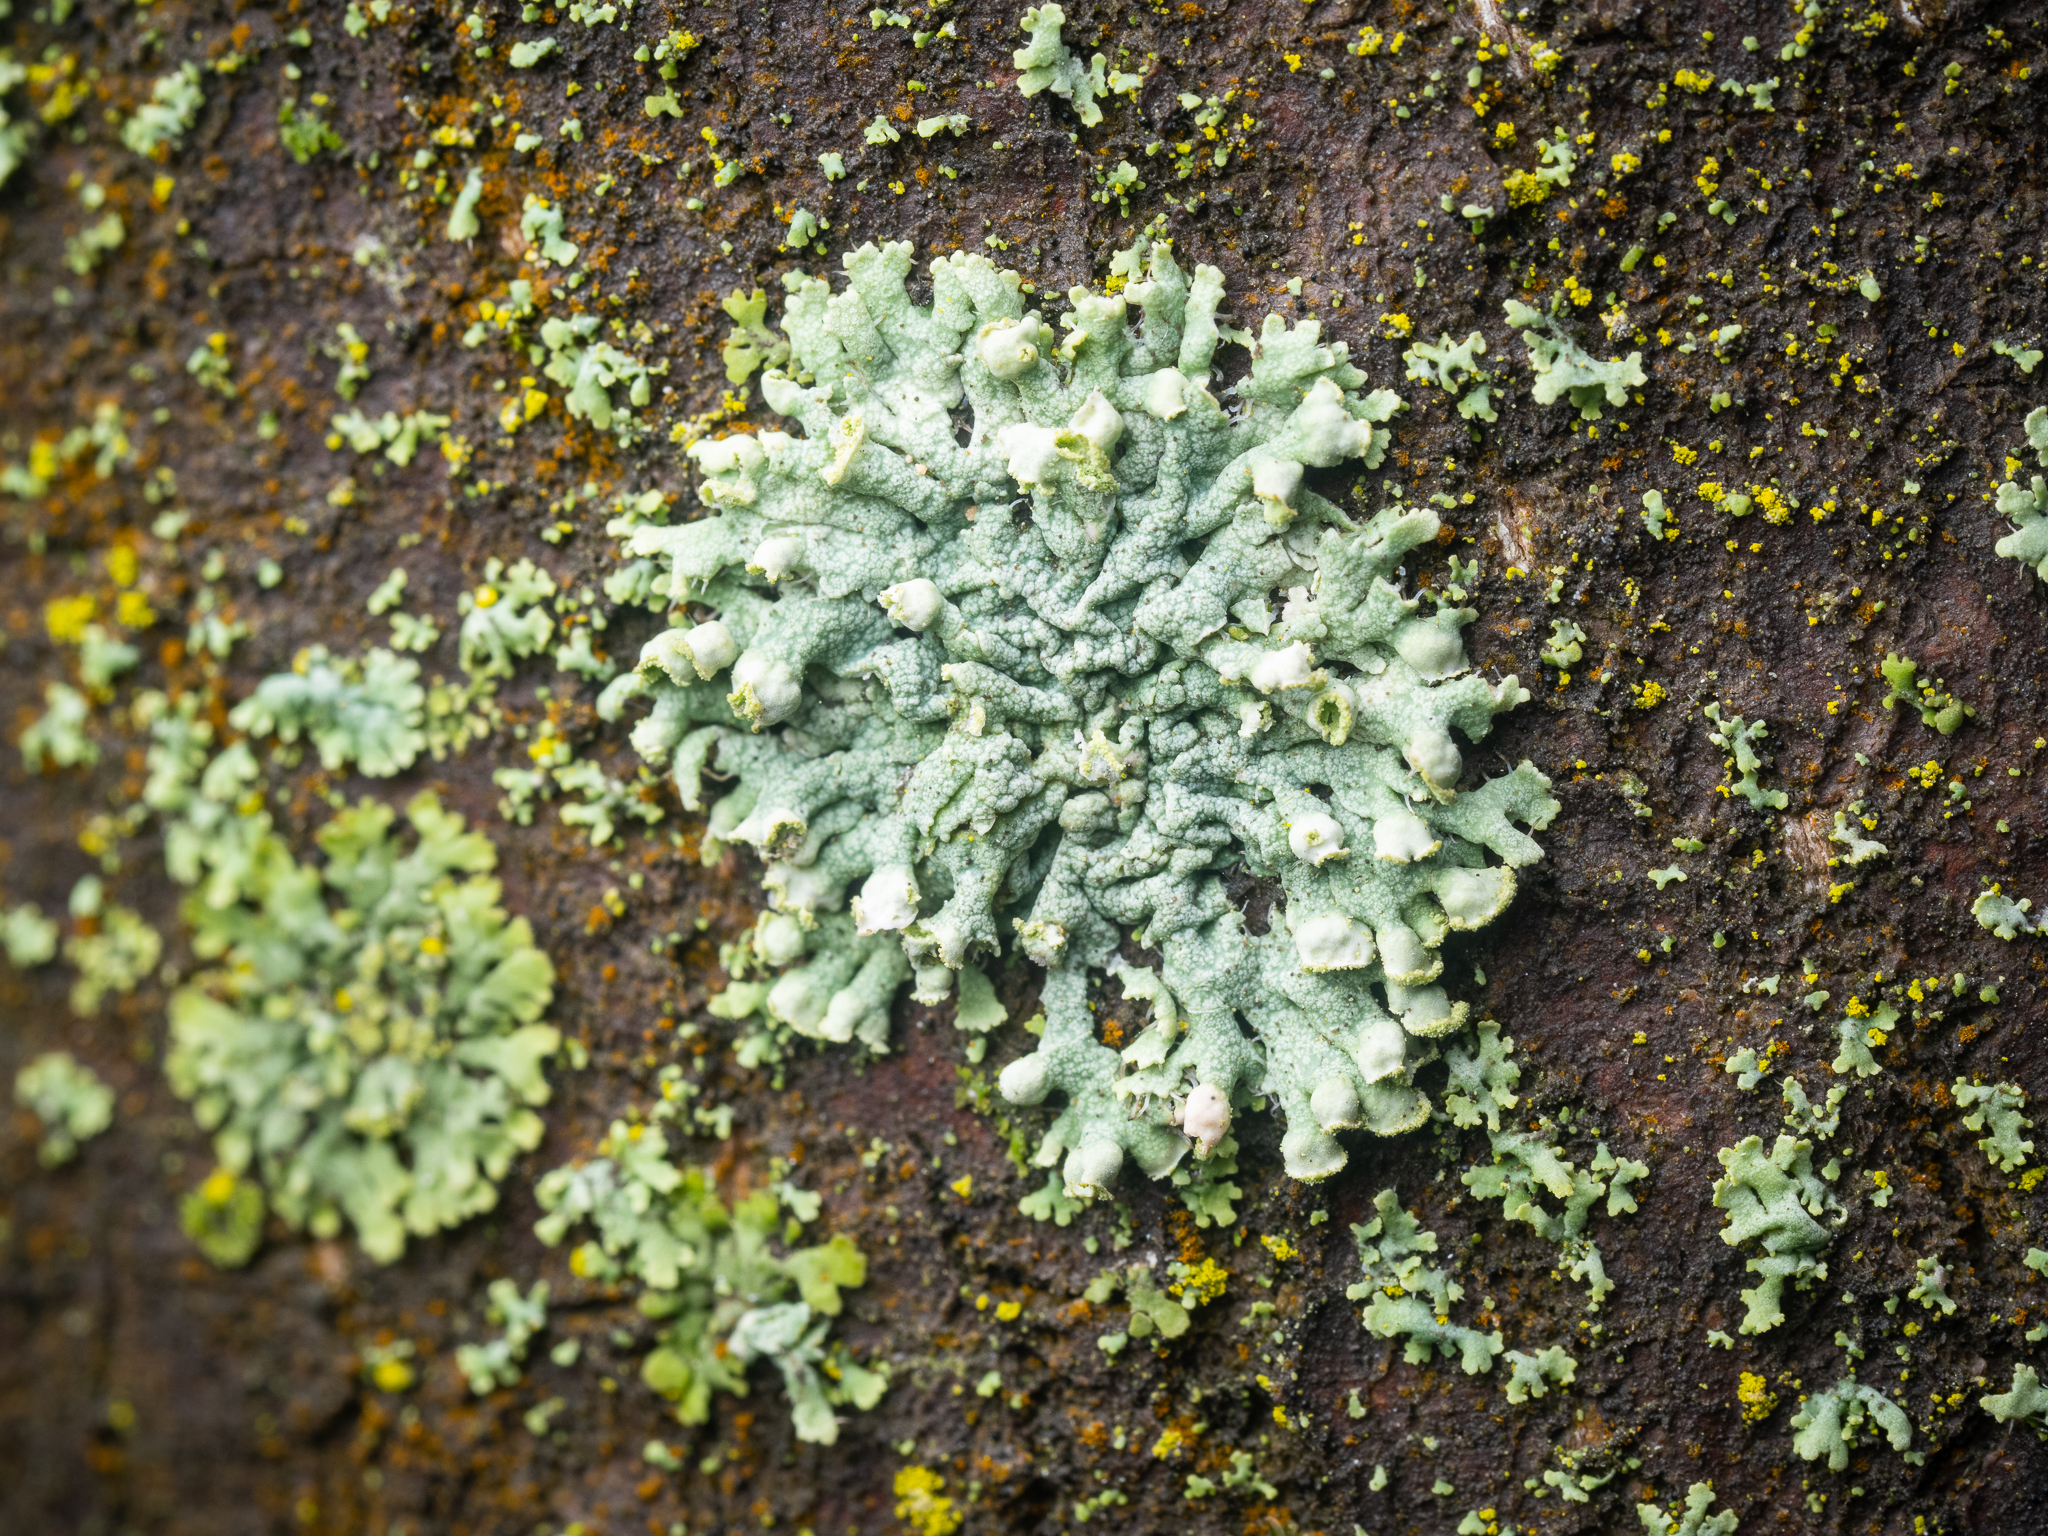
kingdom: Fungi
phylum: Ascomycota
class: Lecanoromycetes
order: Caliciales
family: Physciaceae
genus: Physcia
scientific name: Physcia adscendens
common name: Hooded rosette lichen
